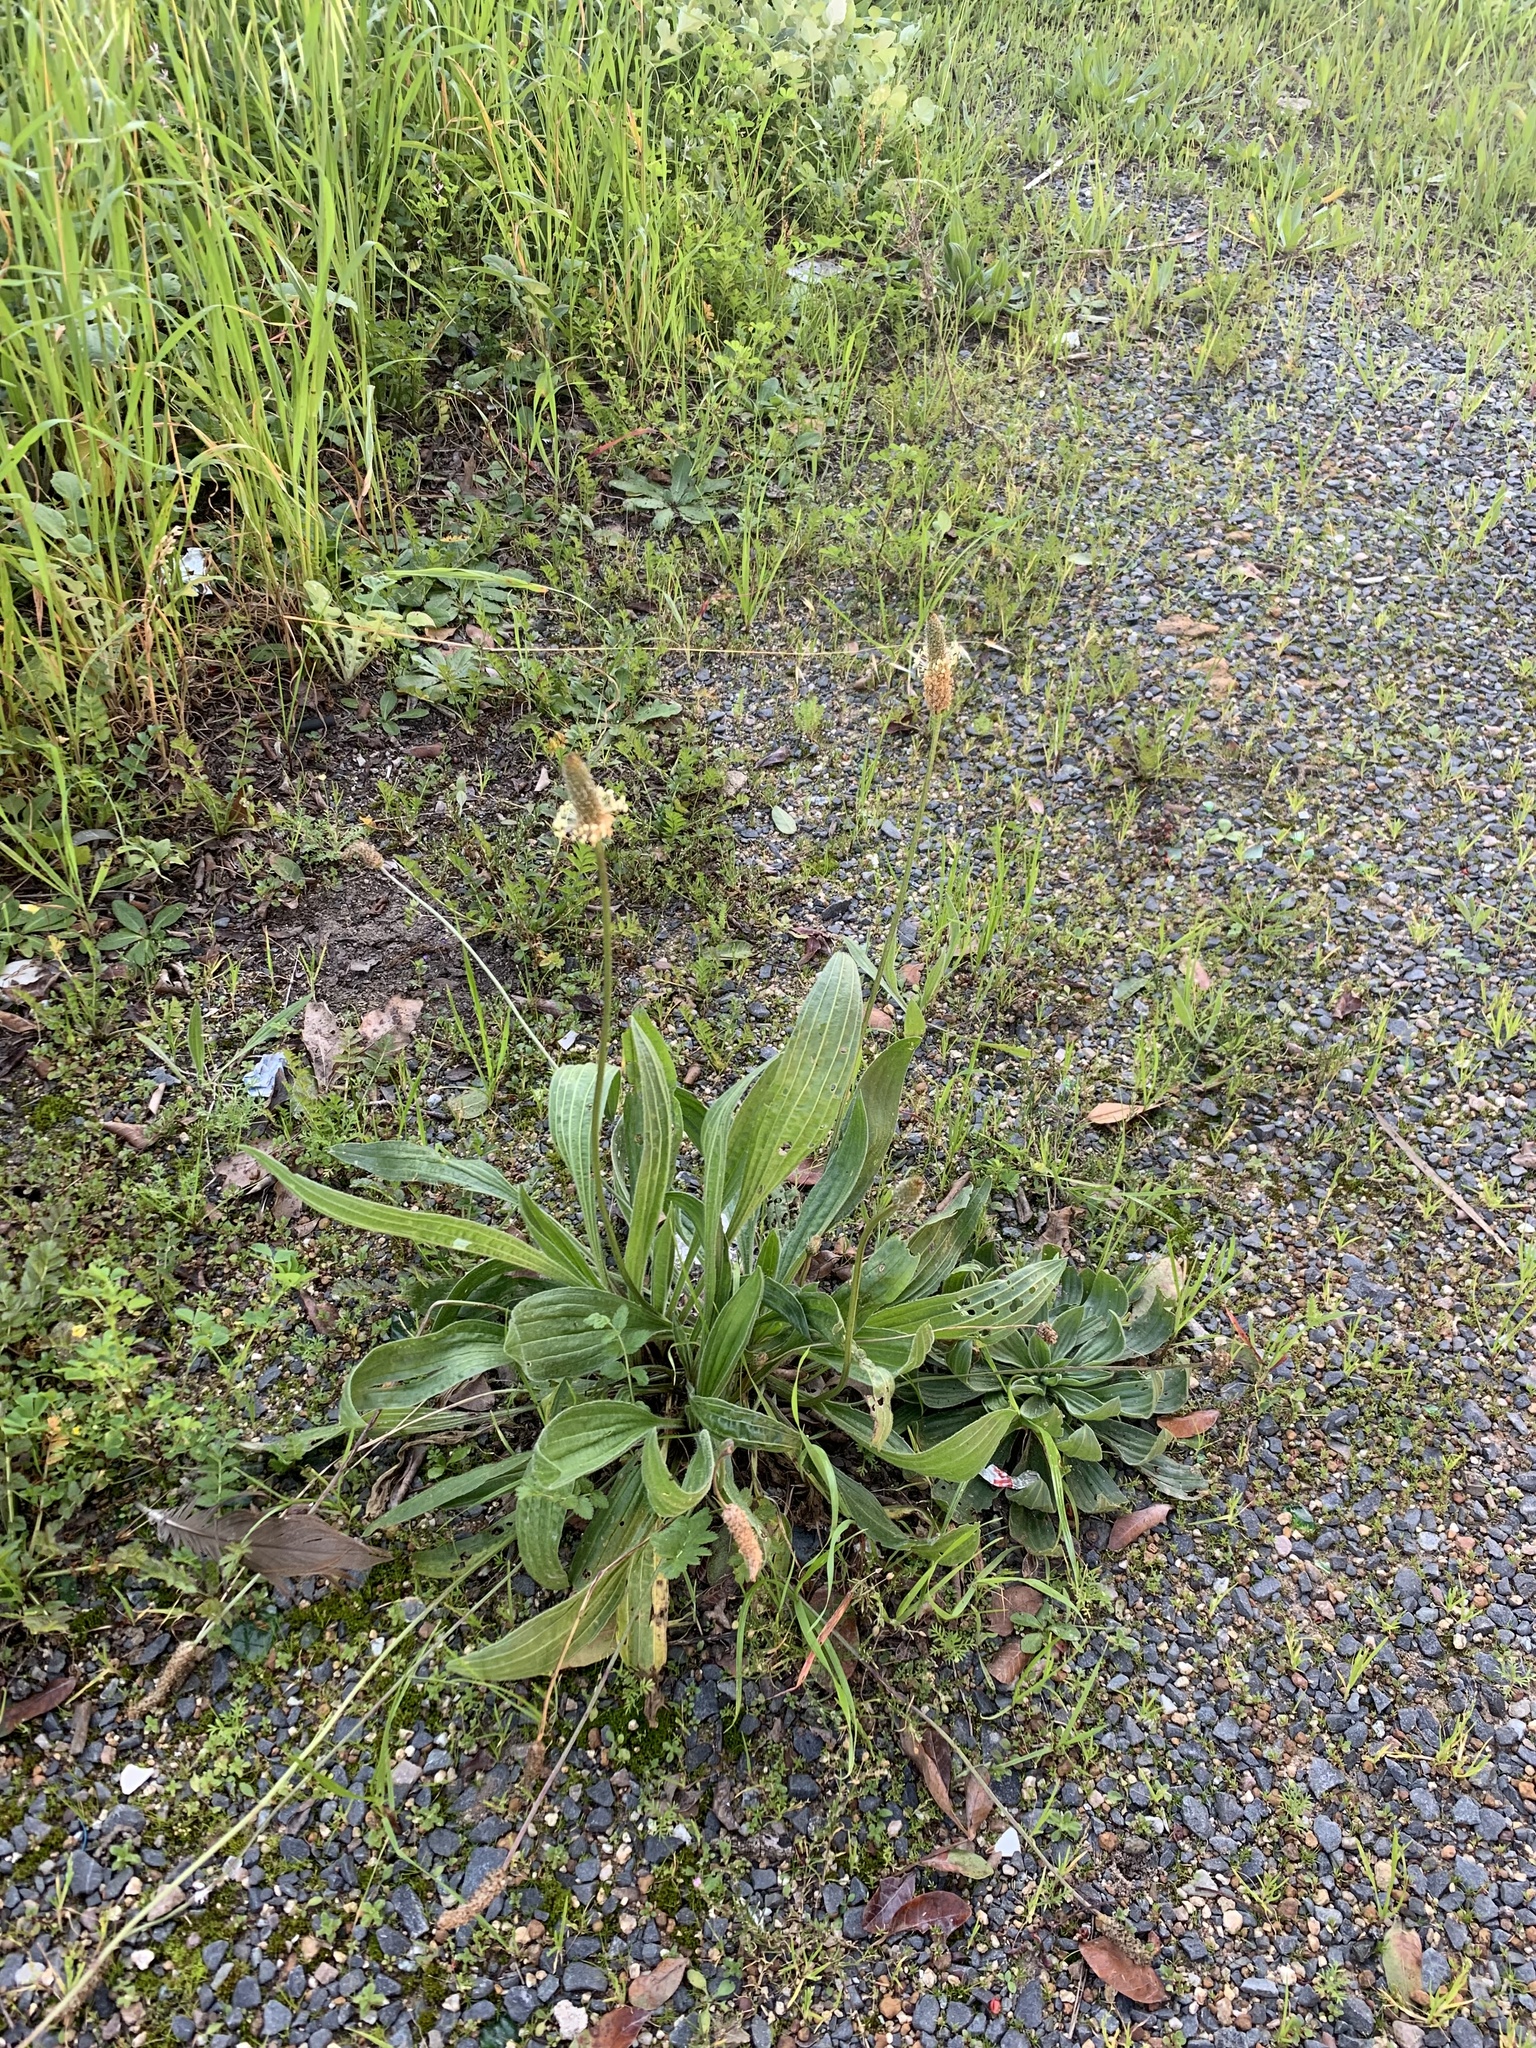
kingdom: Plantae
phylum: Tracheophyta
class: Magnoliopsida
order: Lamiales
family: Plantaginaceae
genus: Plantago
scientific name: Plantago lanceolata
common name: Ribwort plantain
